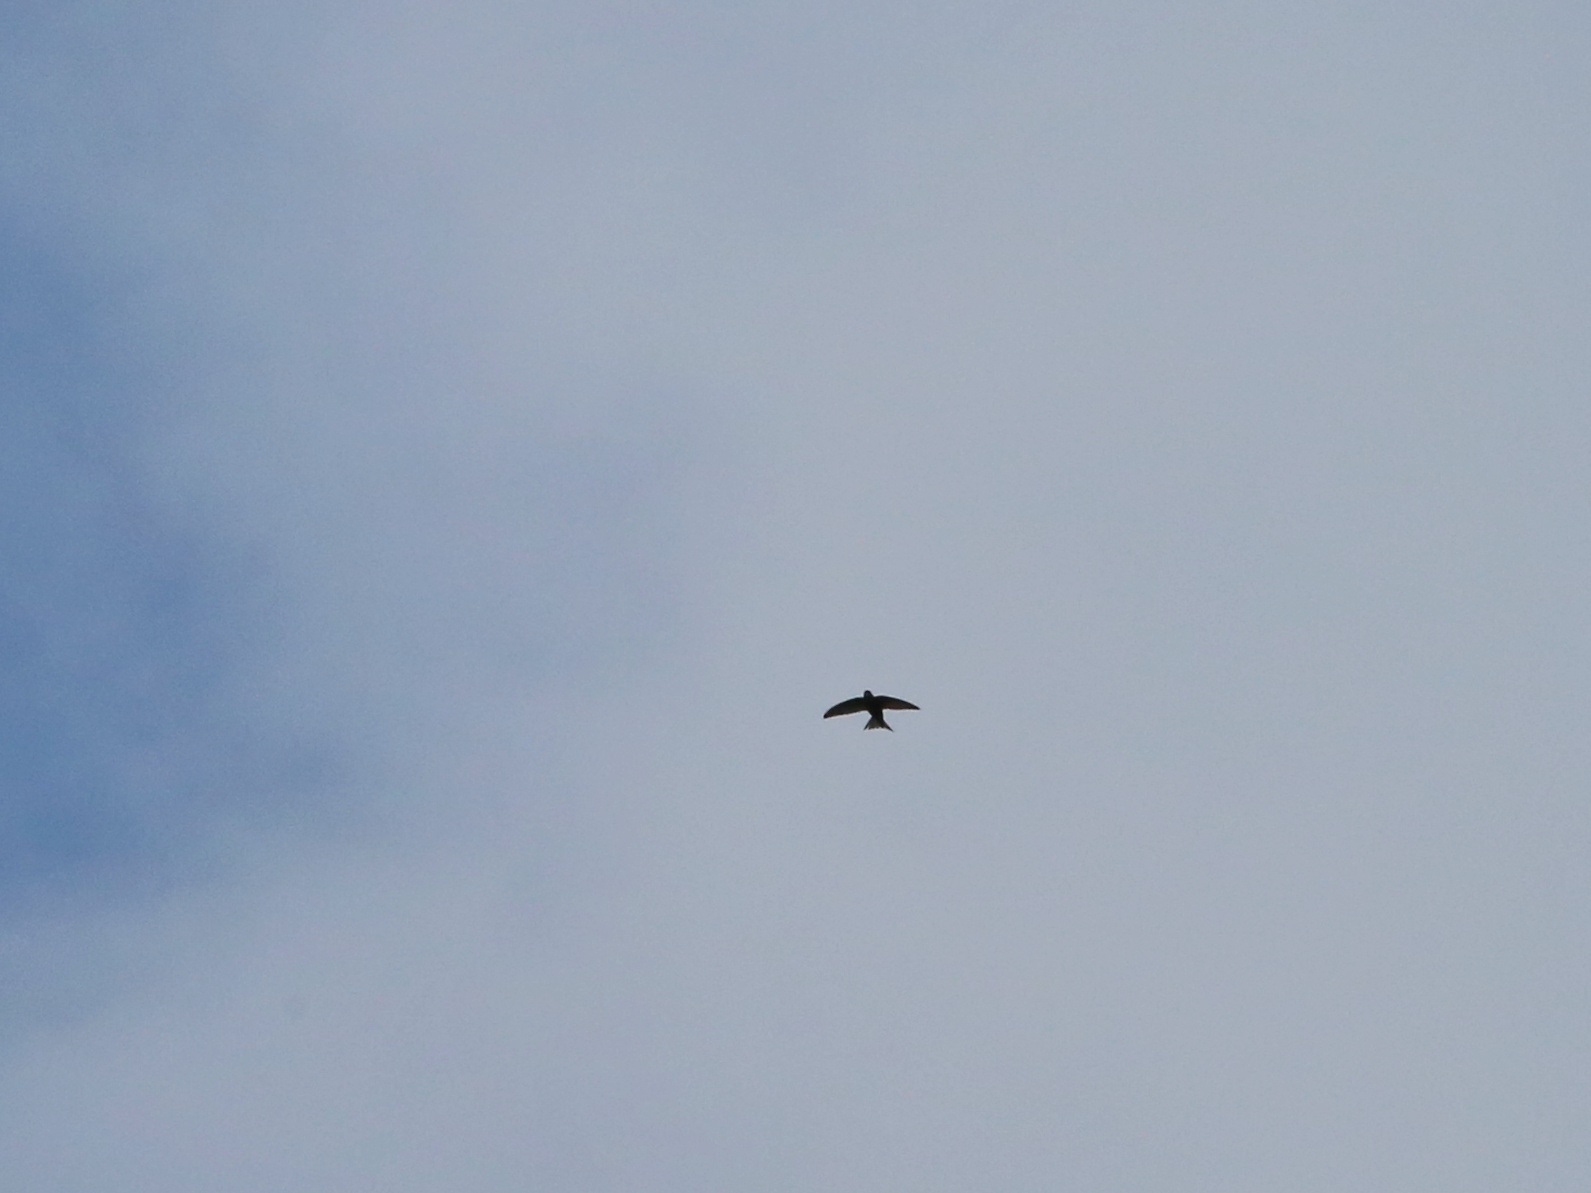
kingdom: Animalia
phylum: Chordata
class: Aves
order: Apodiformes
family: Apodidae
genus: Apus
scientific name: Apus apus
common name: Common swift
